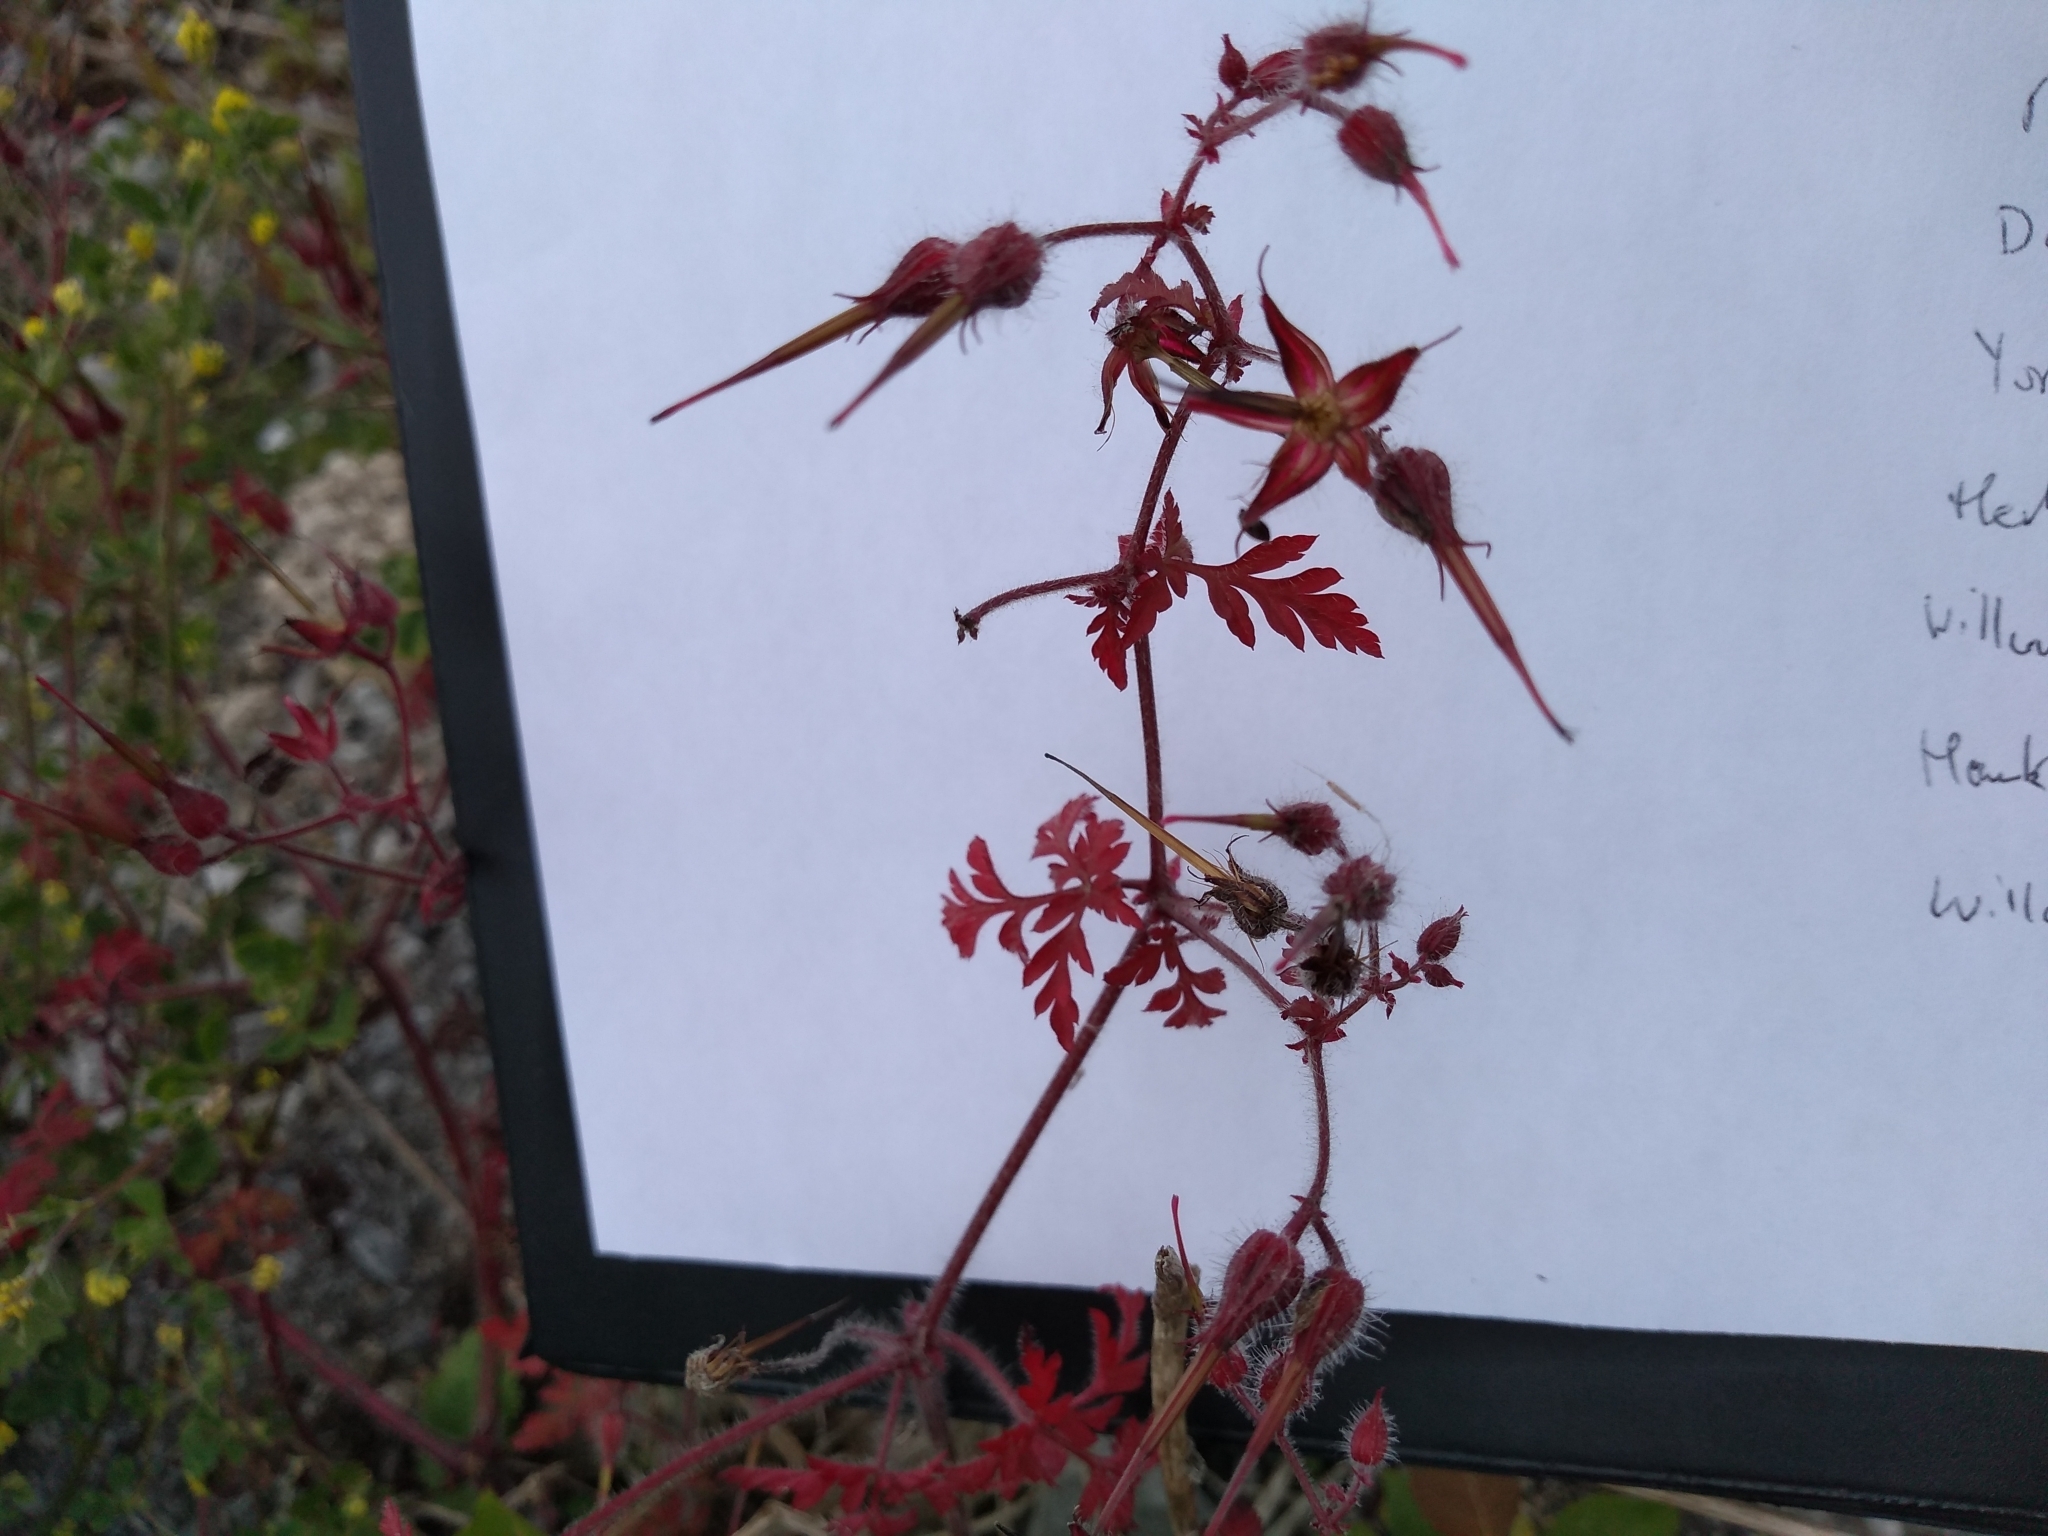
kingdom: Plantae
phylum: Tracheophyta
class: Magnoliopsida
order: Geraniales
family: Geraniaceae
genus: Geranium
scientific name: Geranium robertianum
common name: Herb-robert
